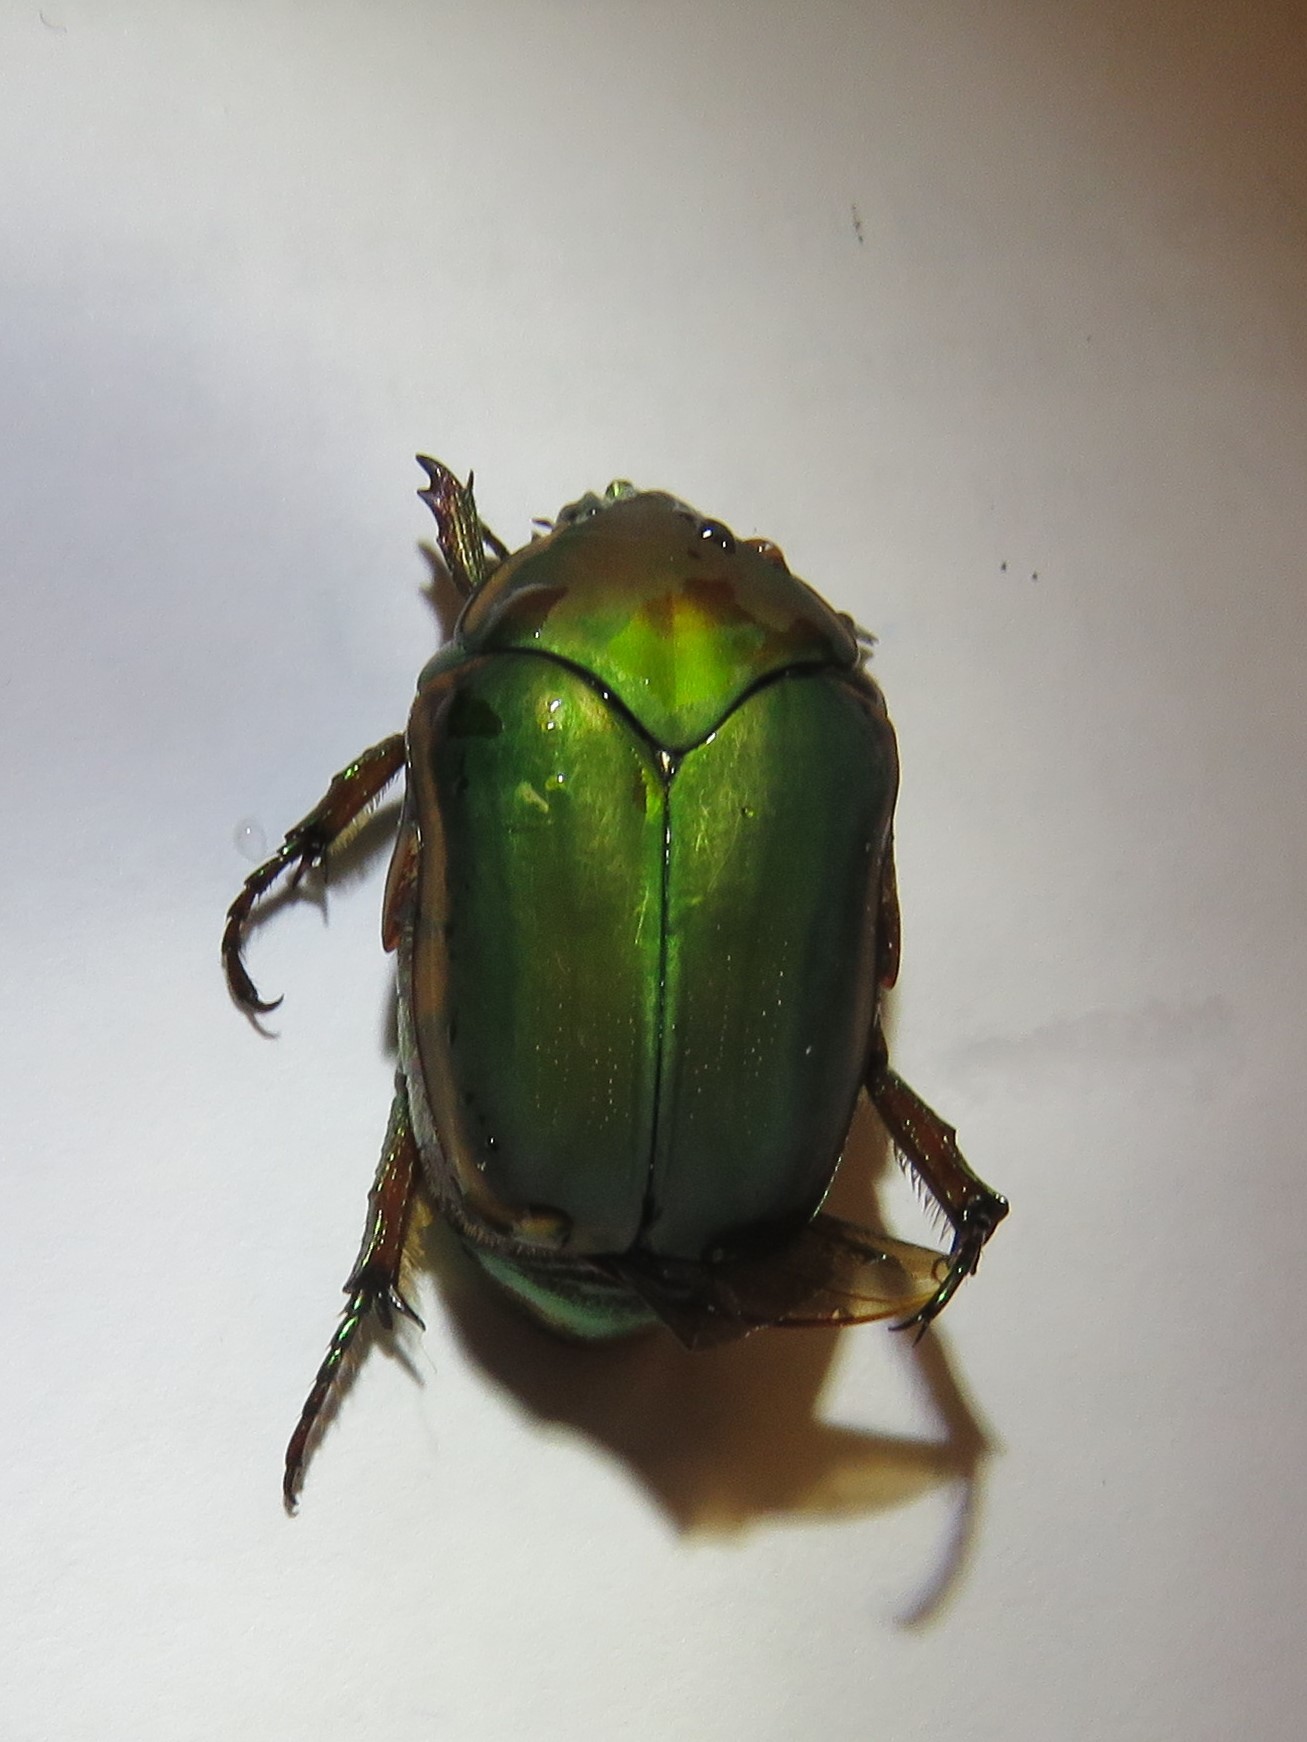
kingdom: Animalia
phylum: Arthropoda
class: Insecta
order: Coleoptera
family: Scarabaeidae
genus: Cotinis
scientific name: Cotinis nitida
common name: Common green june beetle
